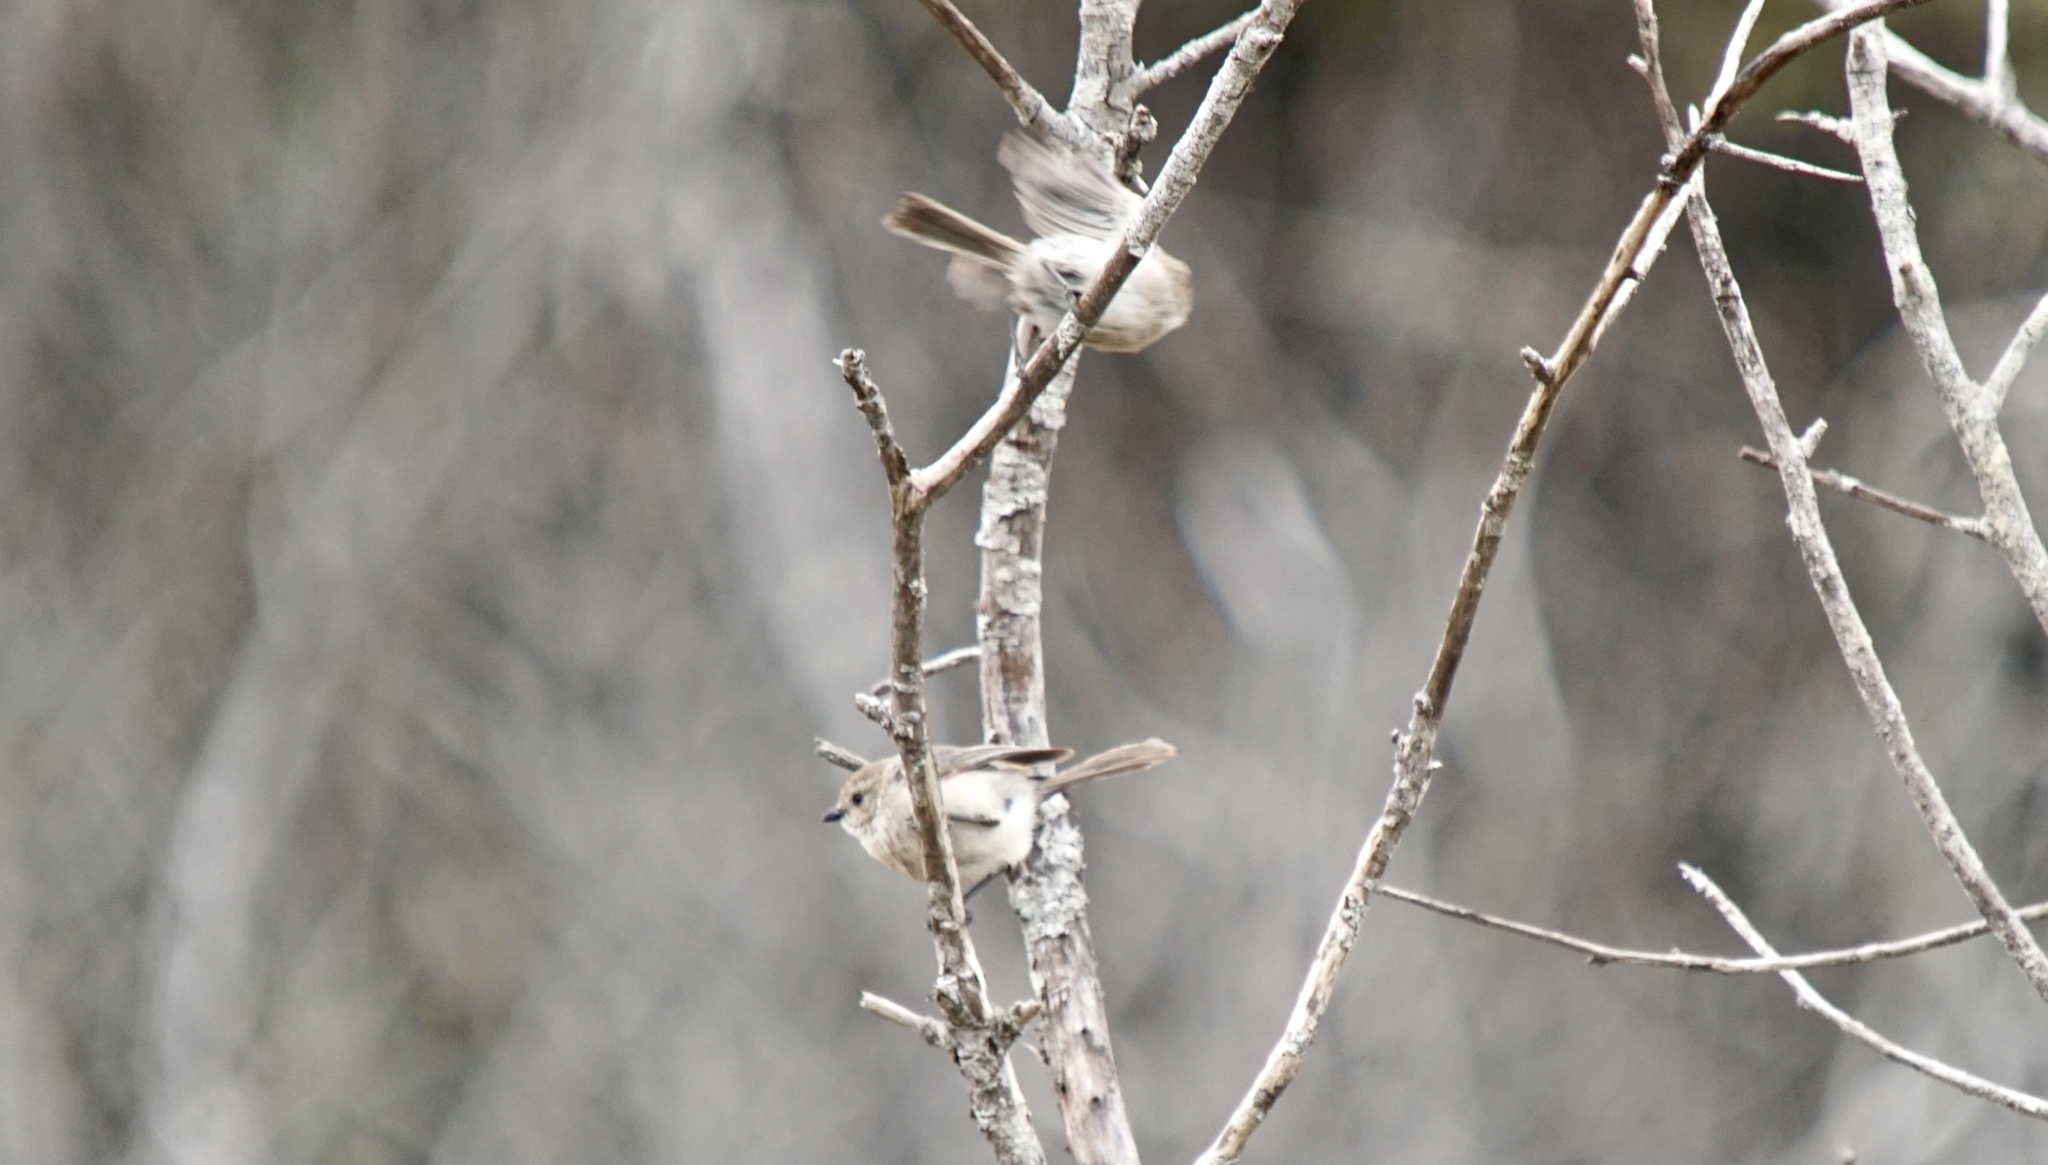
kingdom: Animalia
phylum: Chordata
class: Aves
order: Passeriformes
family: Aegithalidae
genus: Psaltriparus
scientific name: Psaltriparus minimus
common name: American bushtit
